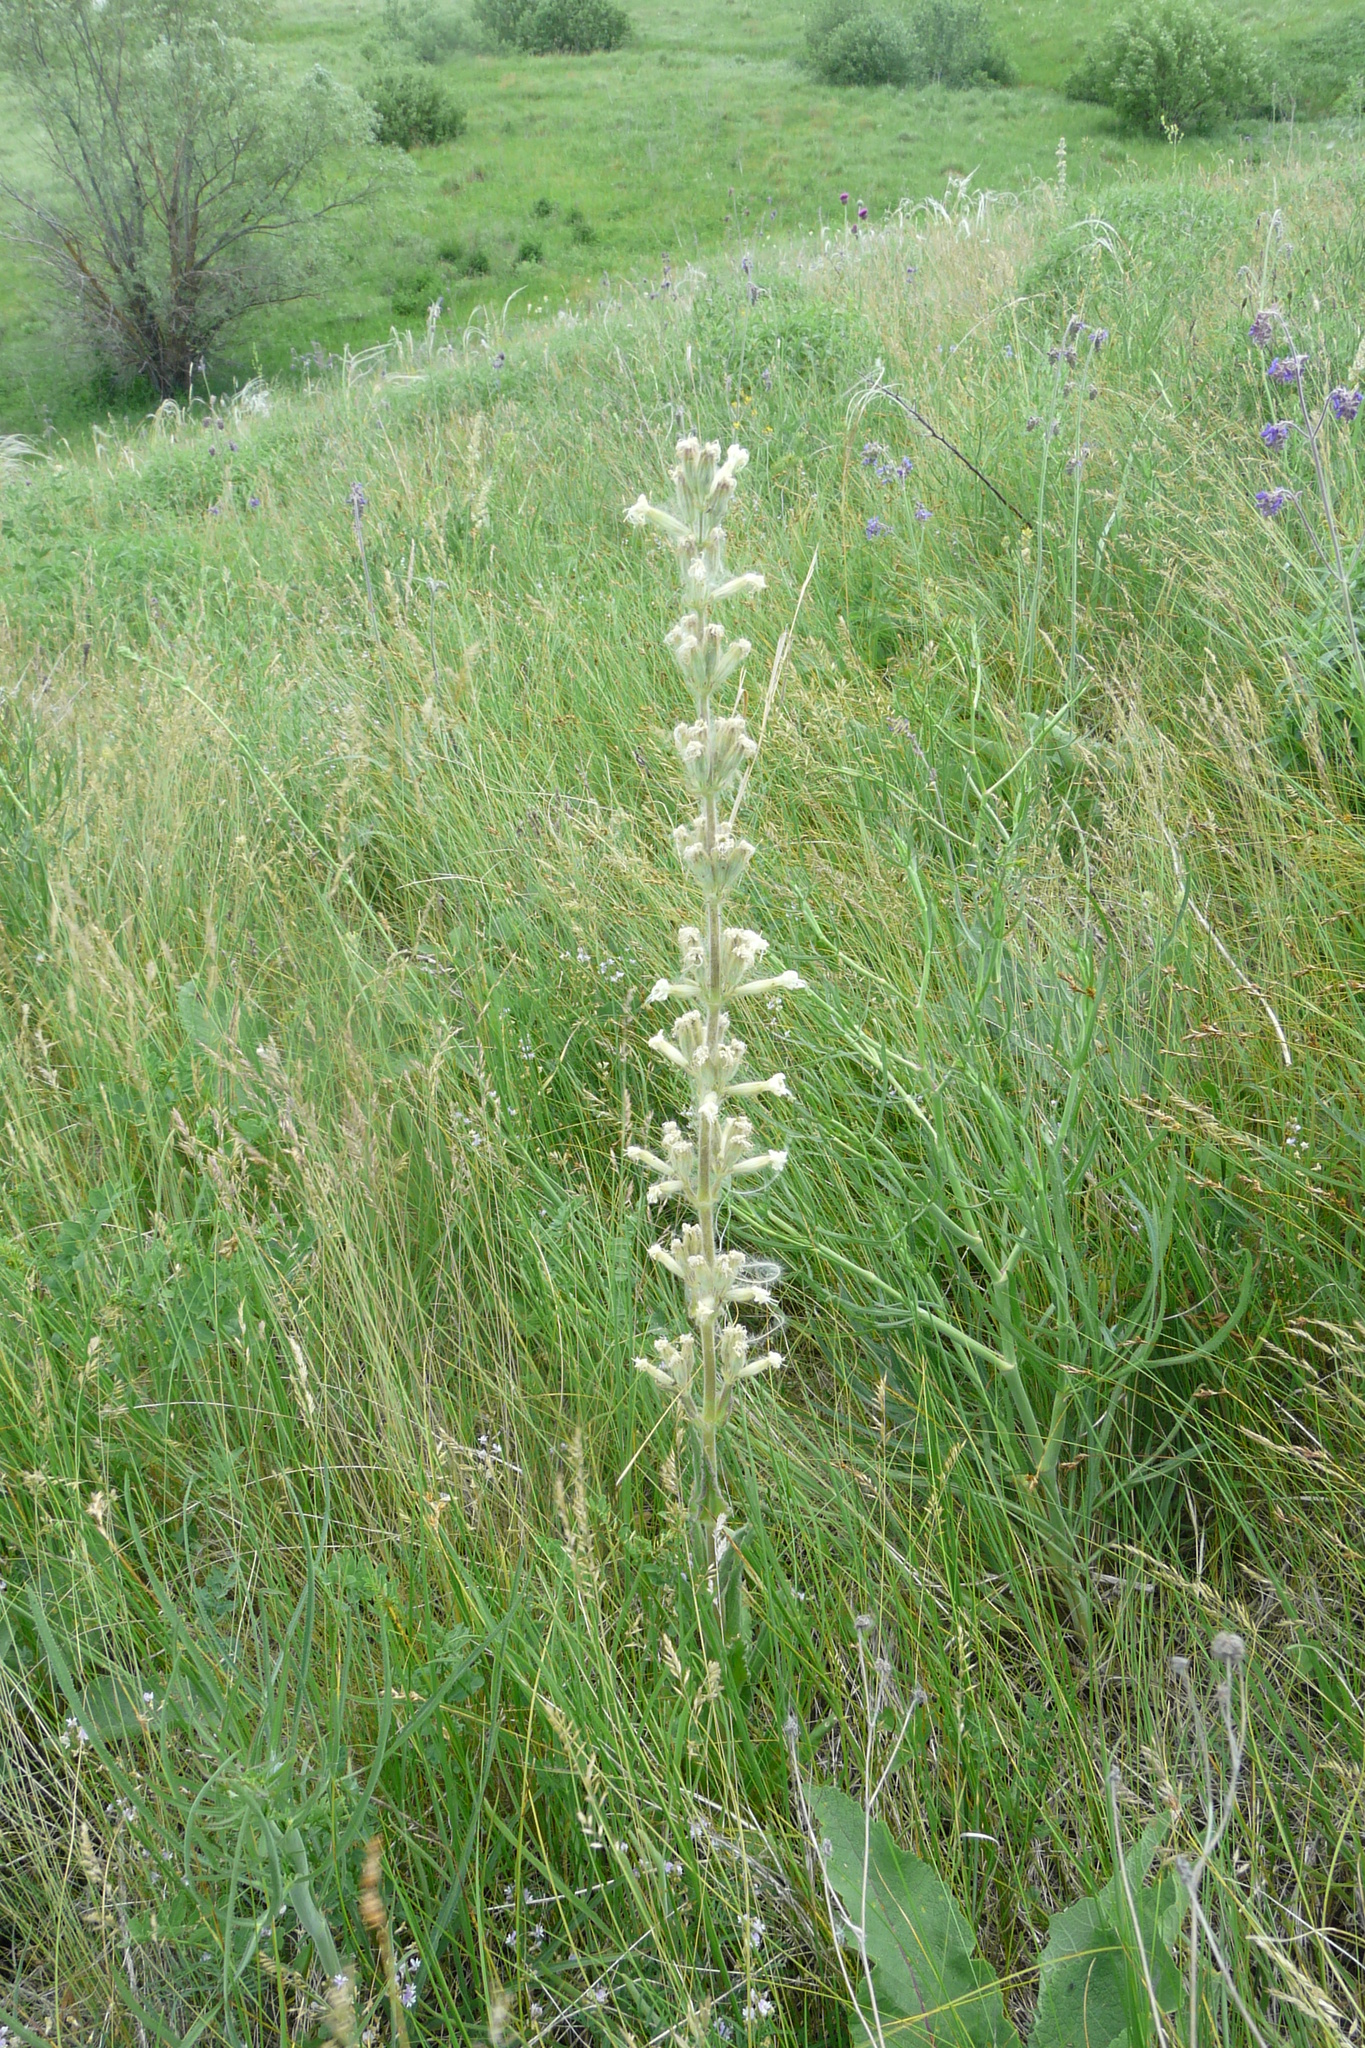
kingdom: Plantae
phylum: Tracheophyta
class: Magnoliopsida
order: Caryophyllales
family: Caryophyllaceae
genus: Silene
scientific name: Silene viscosa
